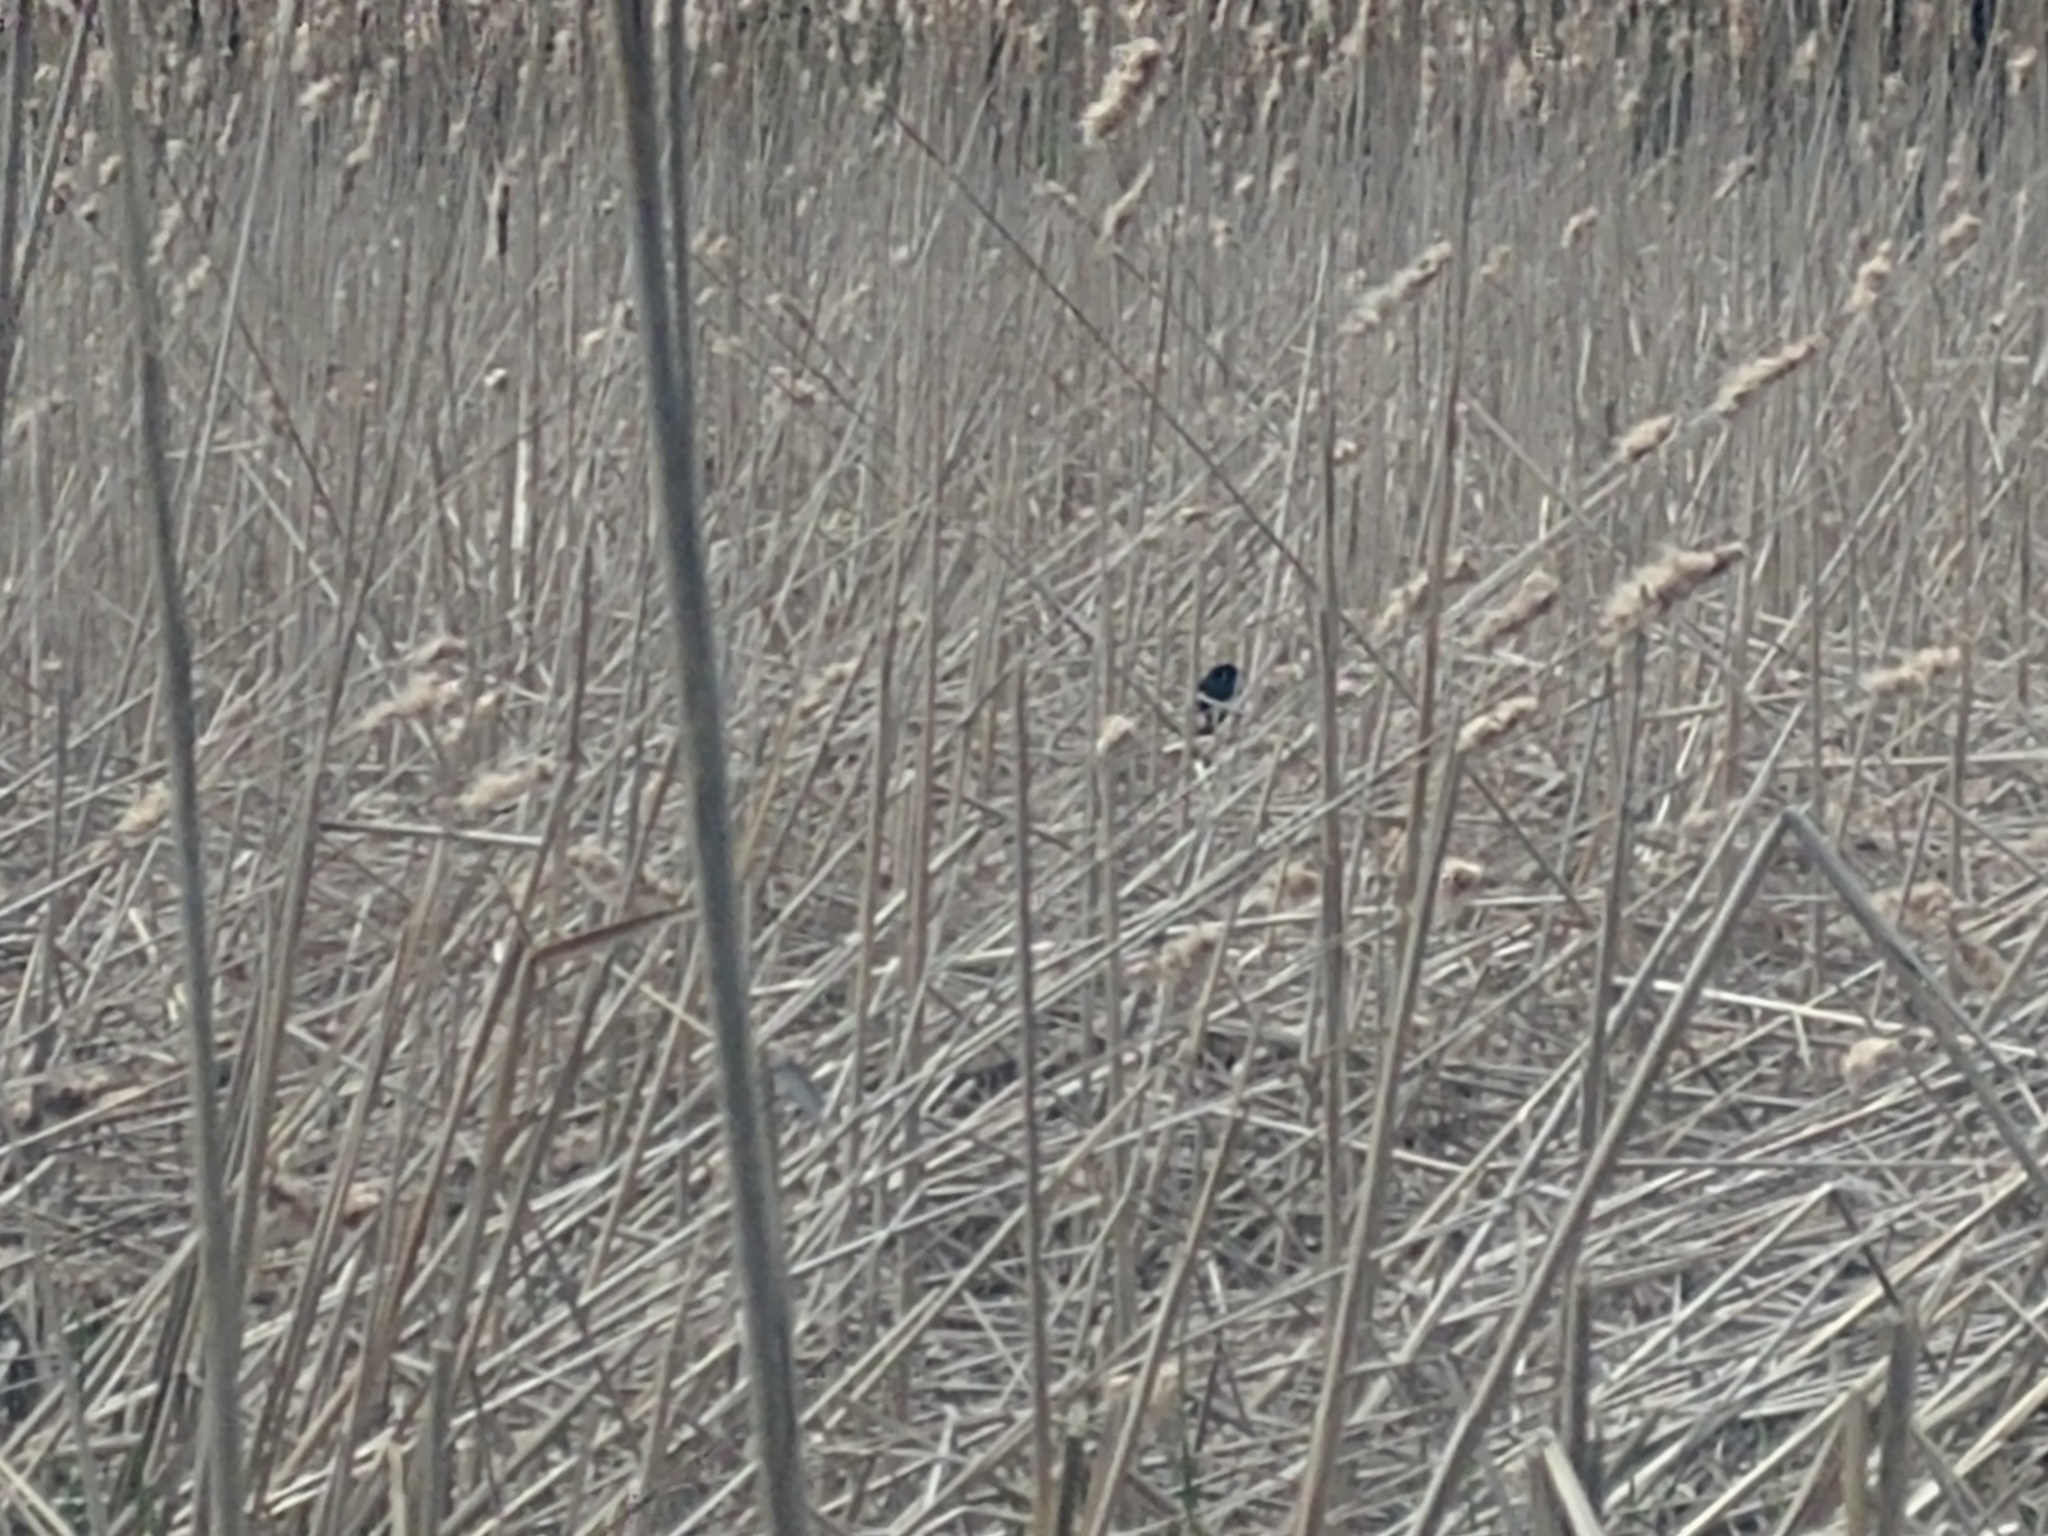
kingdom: Animalia
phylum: Chordata
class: Aves
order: Passeriformes
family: Icteridae
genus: Agelaius
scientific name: Agelaius phoeniceus
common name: Red-winged blackbird
